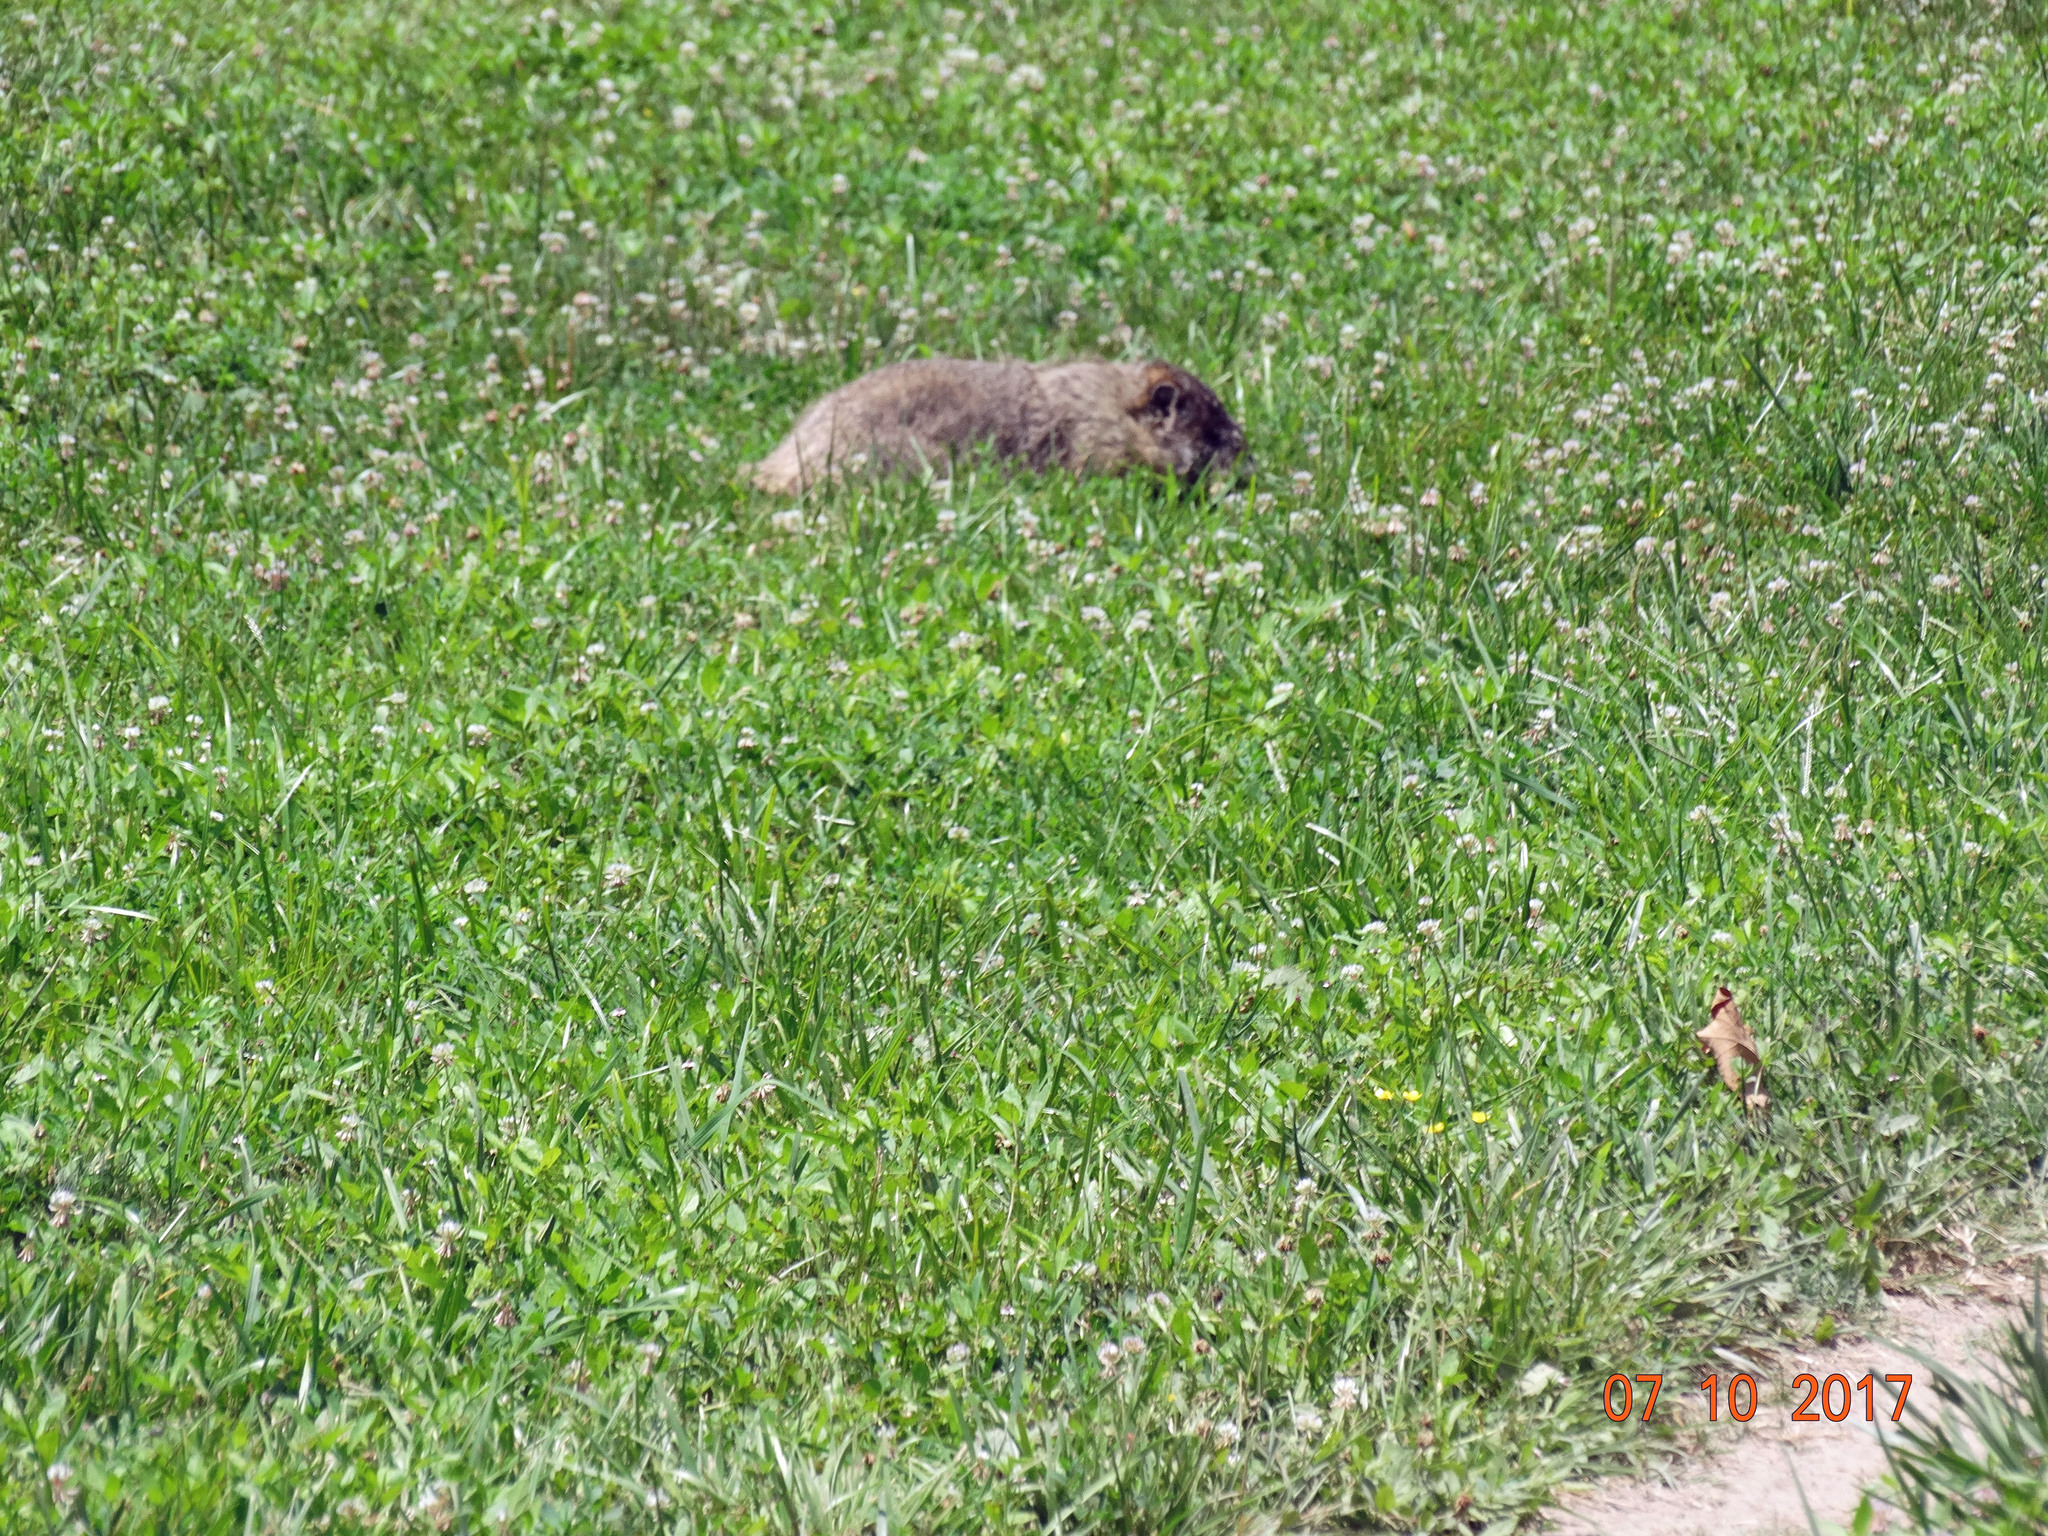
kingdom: Animalia
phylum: Chordata
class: Mammalia
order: Rodentia
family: Sciuridae
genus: Marmota
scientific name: Marmota monax
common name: Groundhog
